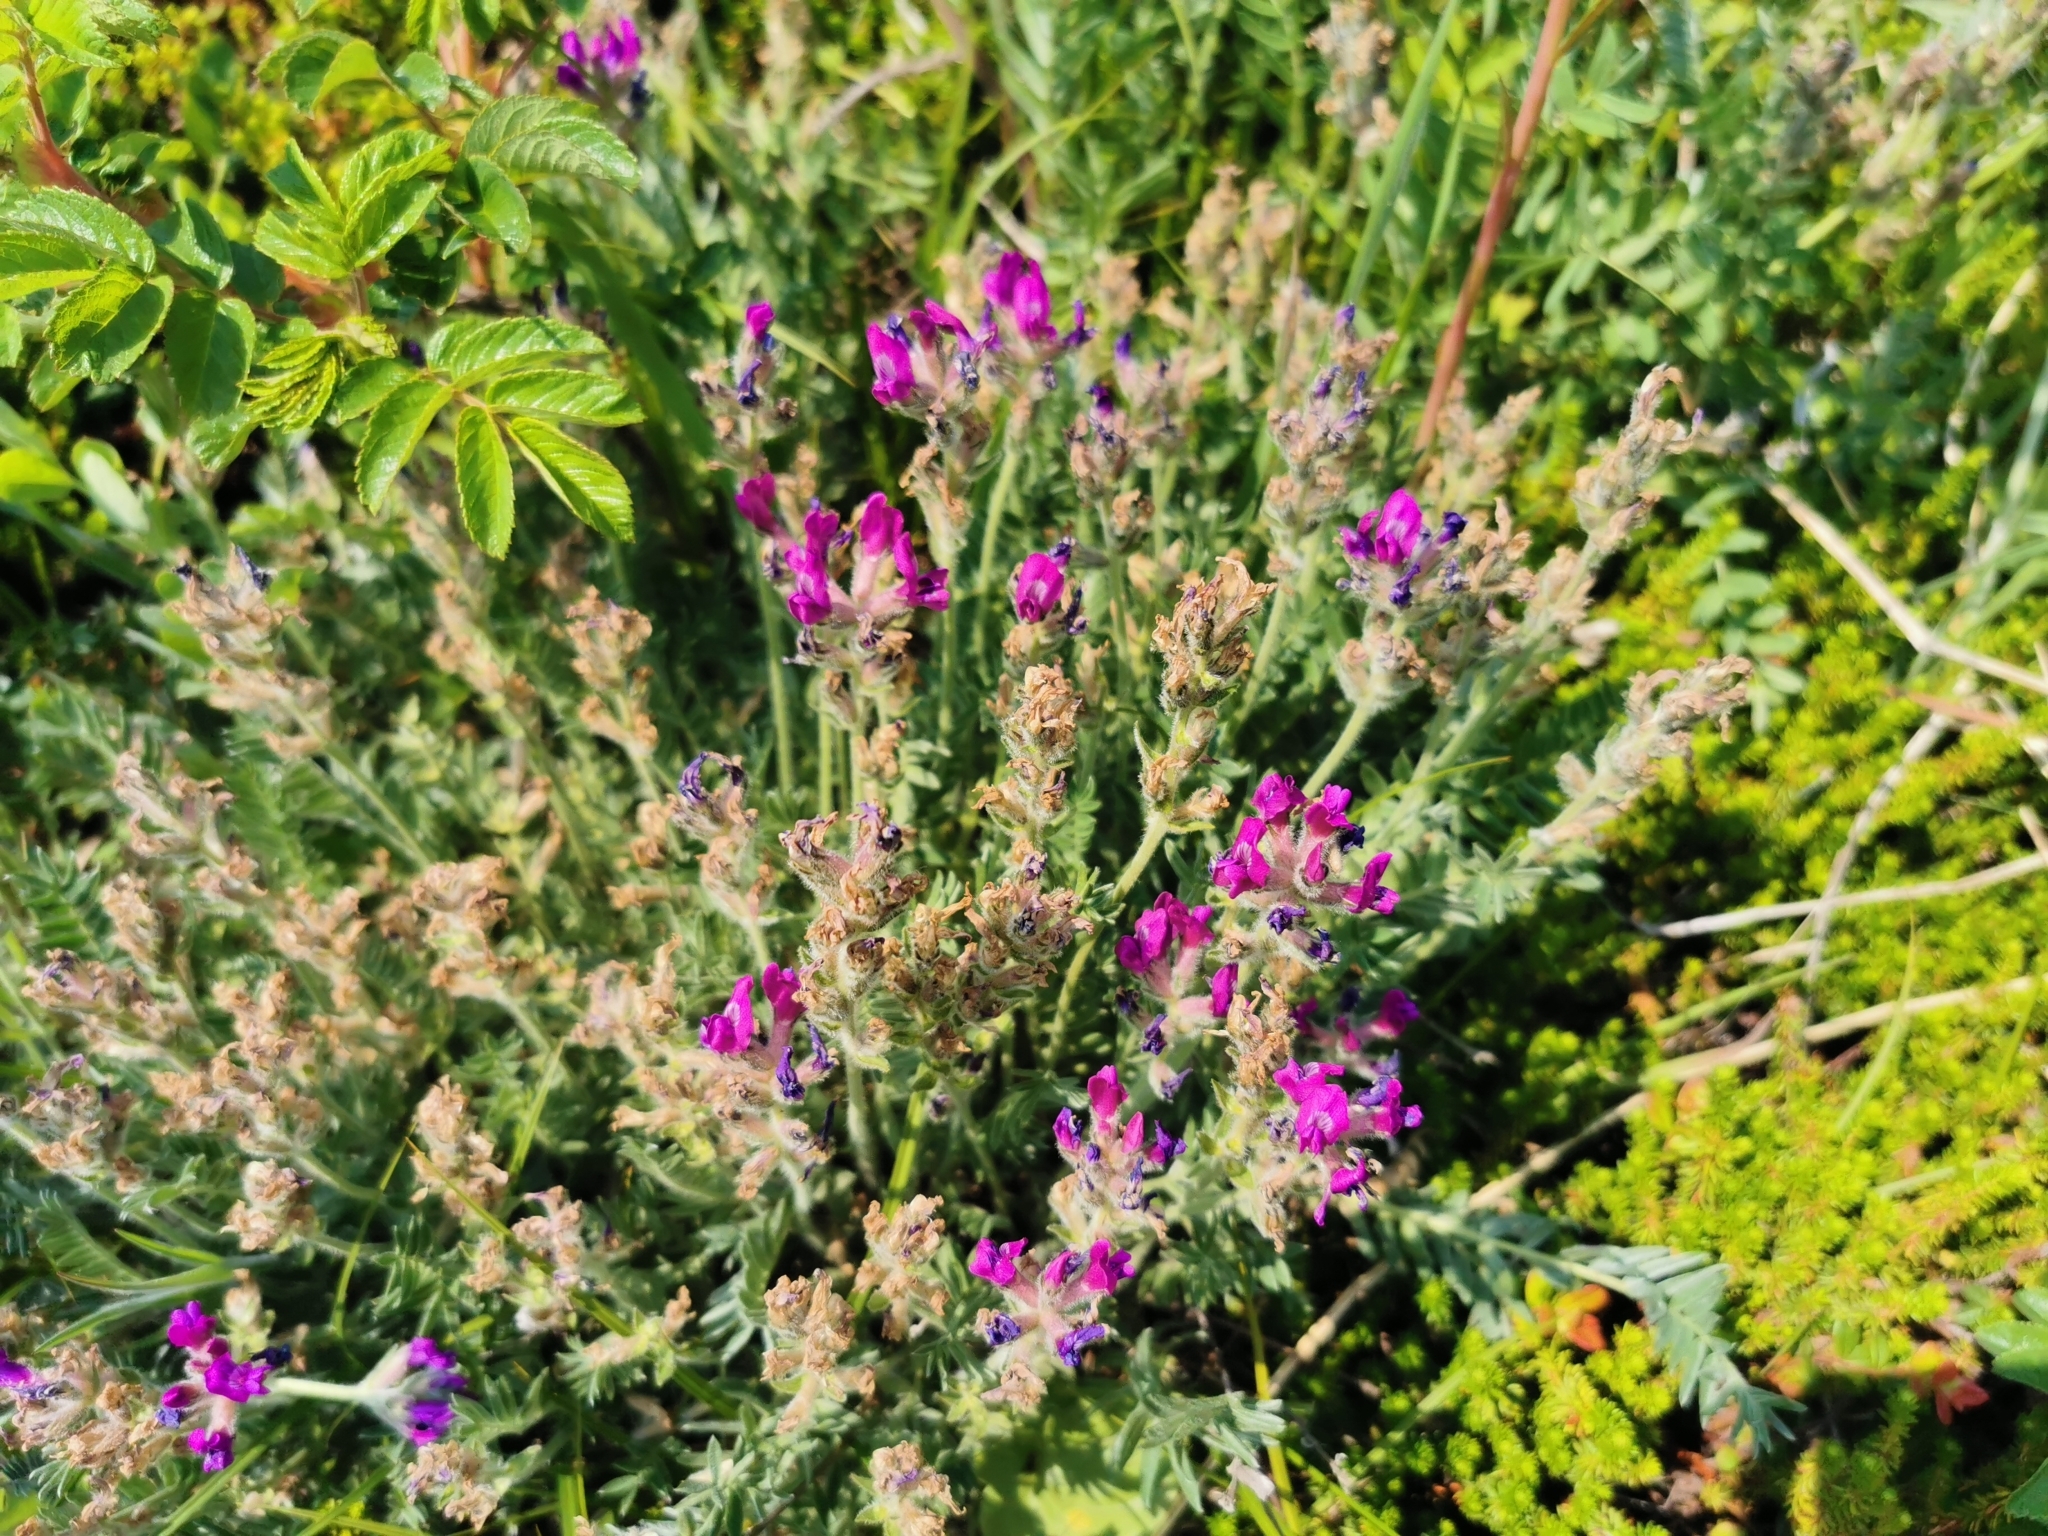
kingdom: Plantae
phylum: Tracheophyta
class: Magnoliopsida
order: Fabales
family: Fabaceae
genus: Oxytropis
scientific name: Oxytropis adamsiana
